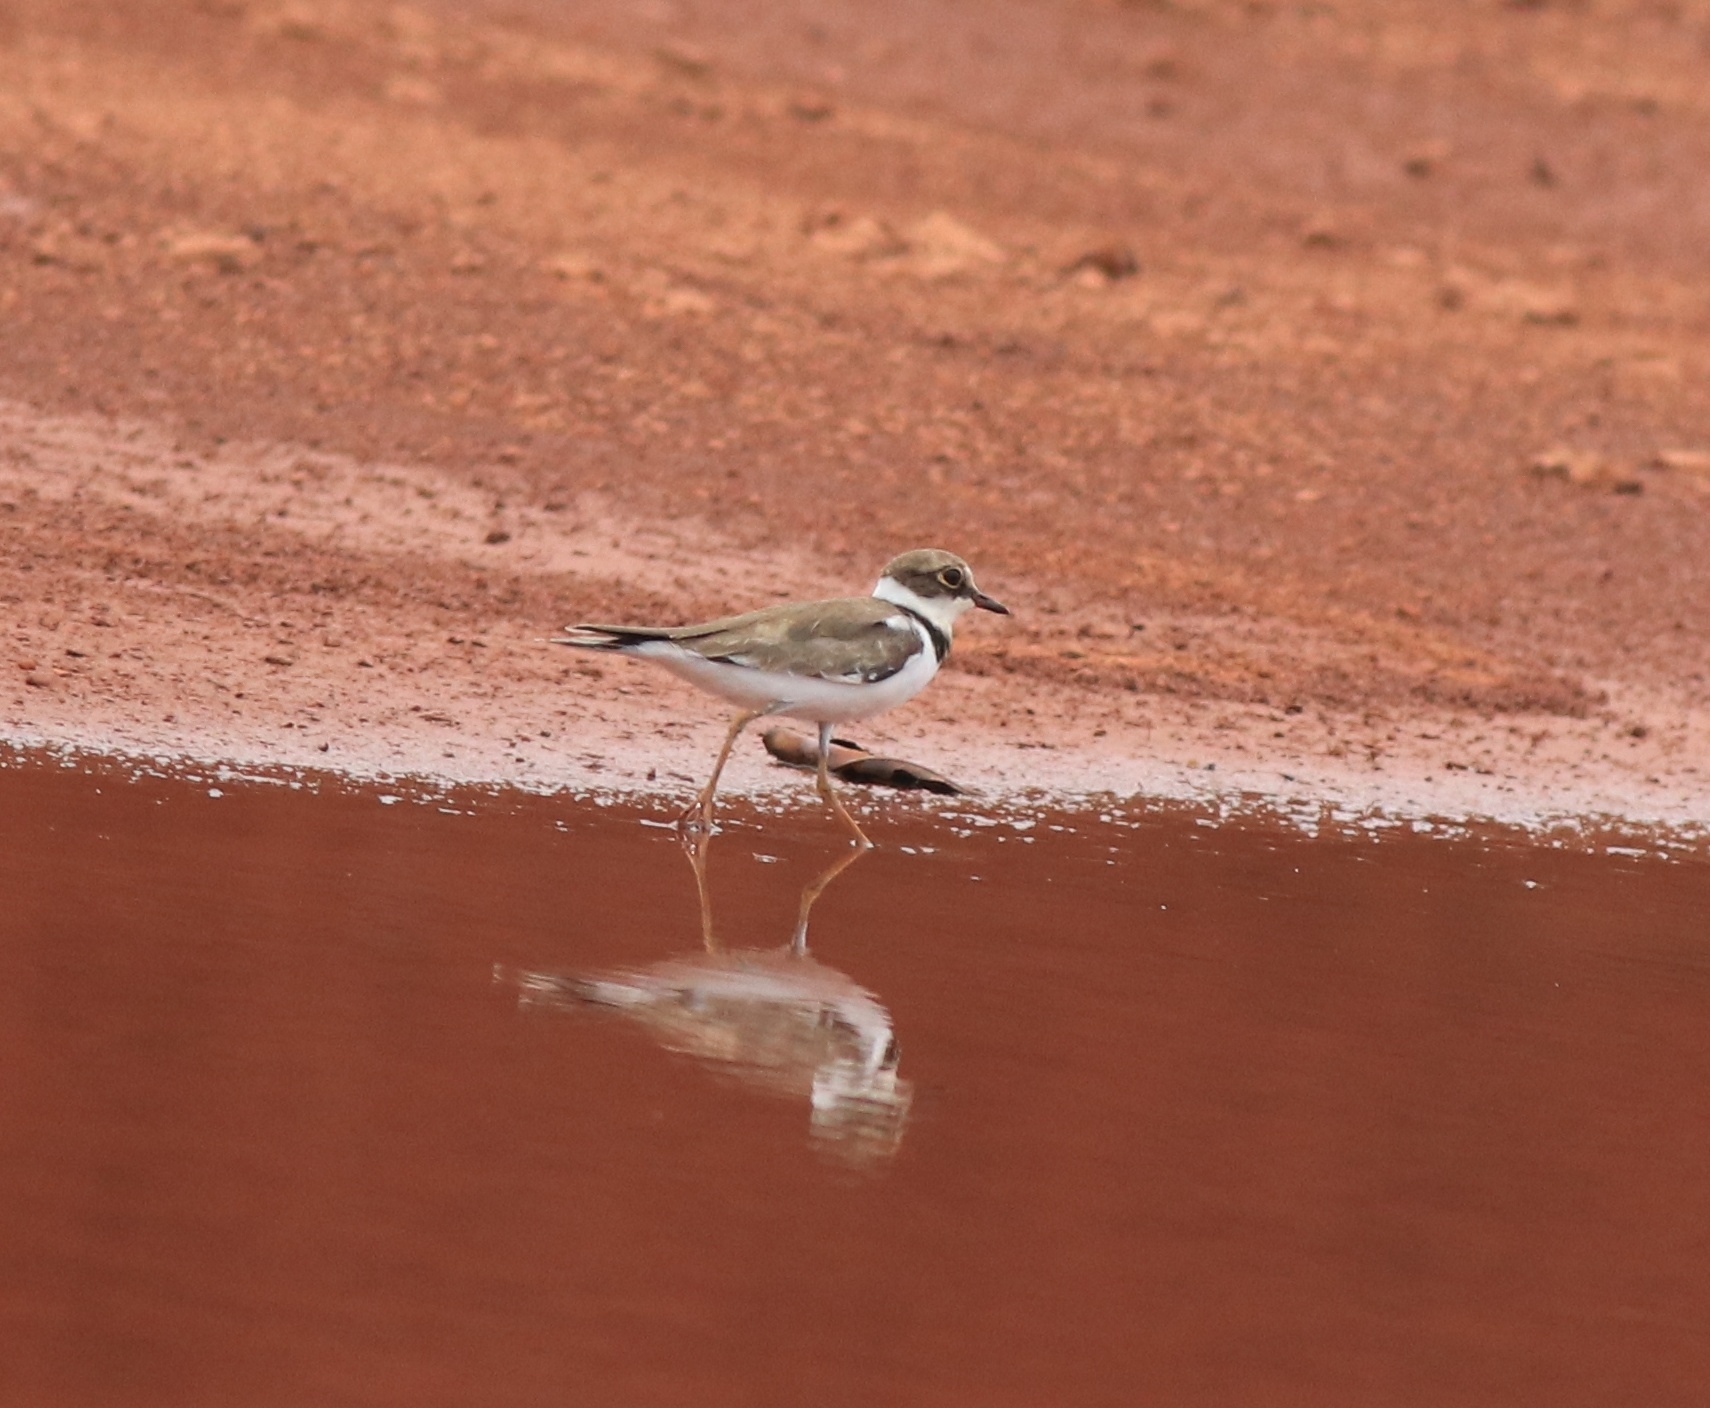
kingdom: Animalia
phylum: Chordata
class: Aves
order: Charadriiformes
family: Charadriidae
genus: Charadrius
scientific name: Charadrius dubius
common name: Little ringed plover
